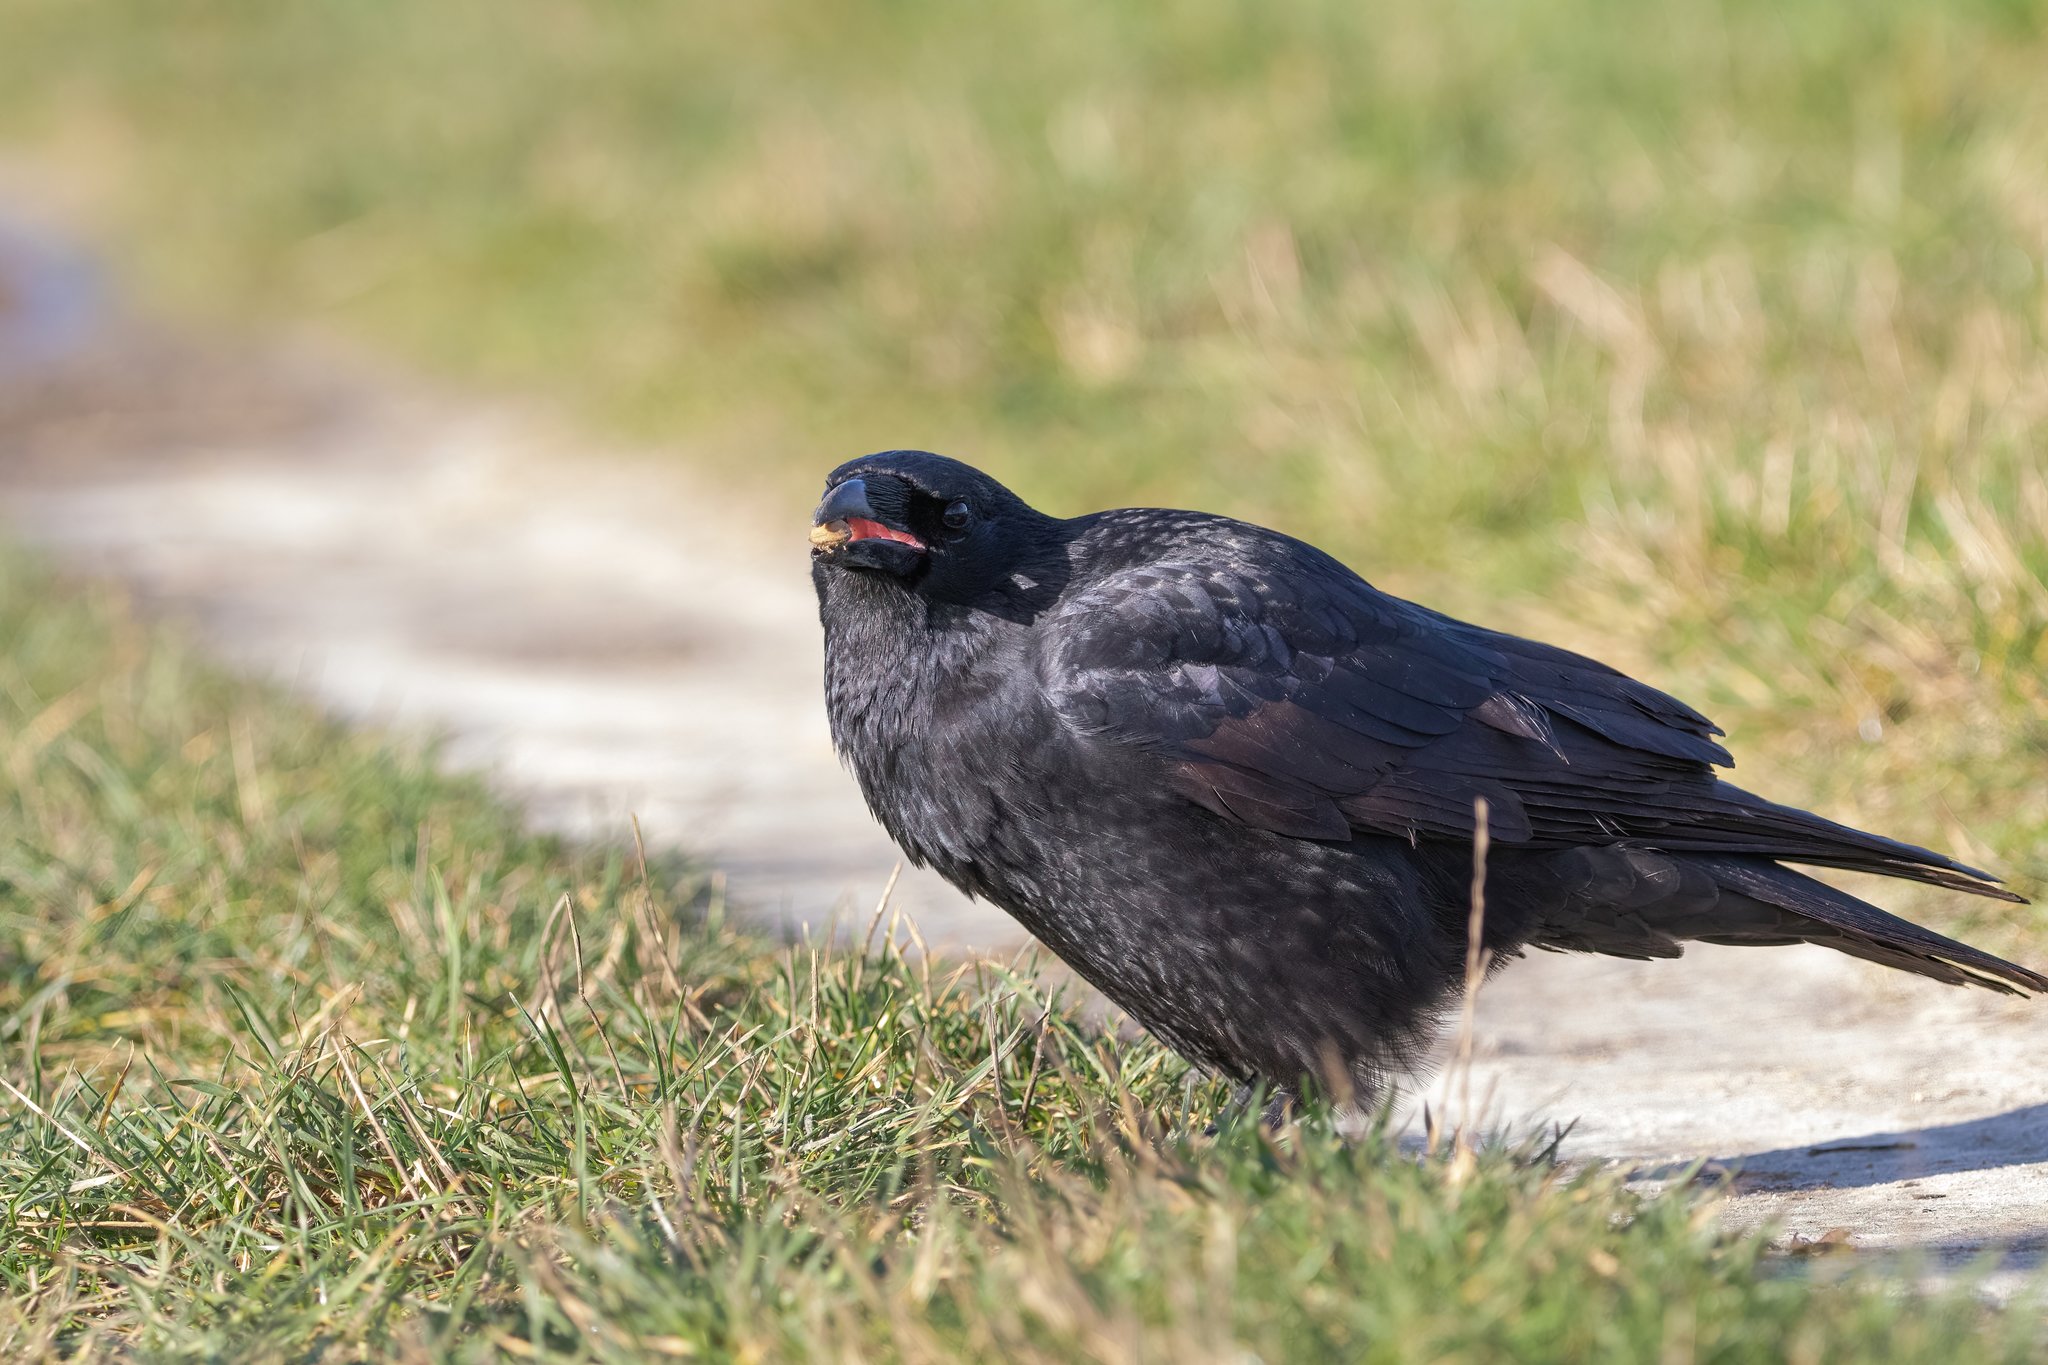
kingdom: Animalia
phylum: Chordata
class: Aves
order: Passeriformes
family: Corvidae
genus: Corvus
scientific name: Corvus corone
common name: Carrion crow
